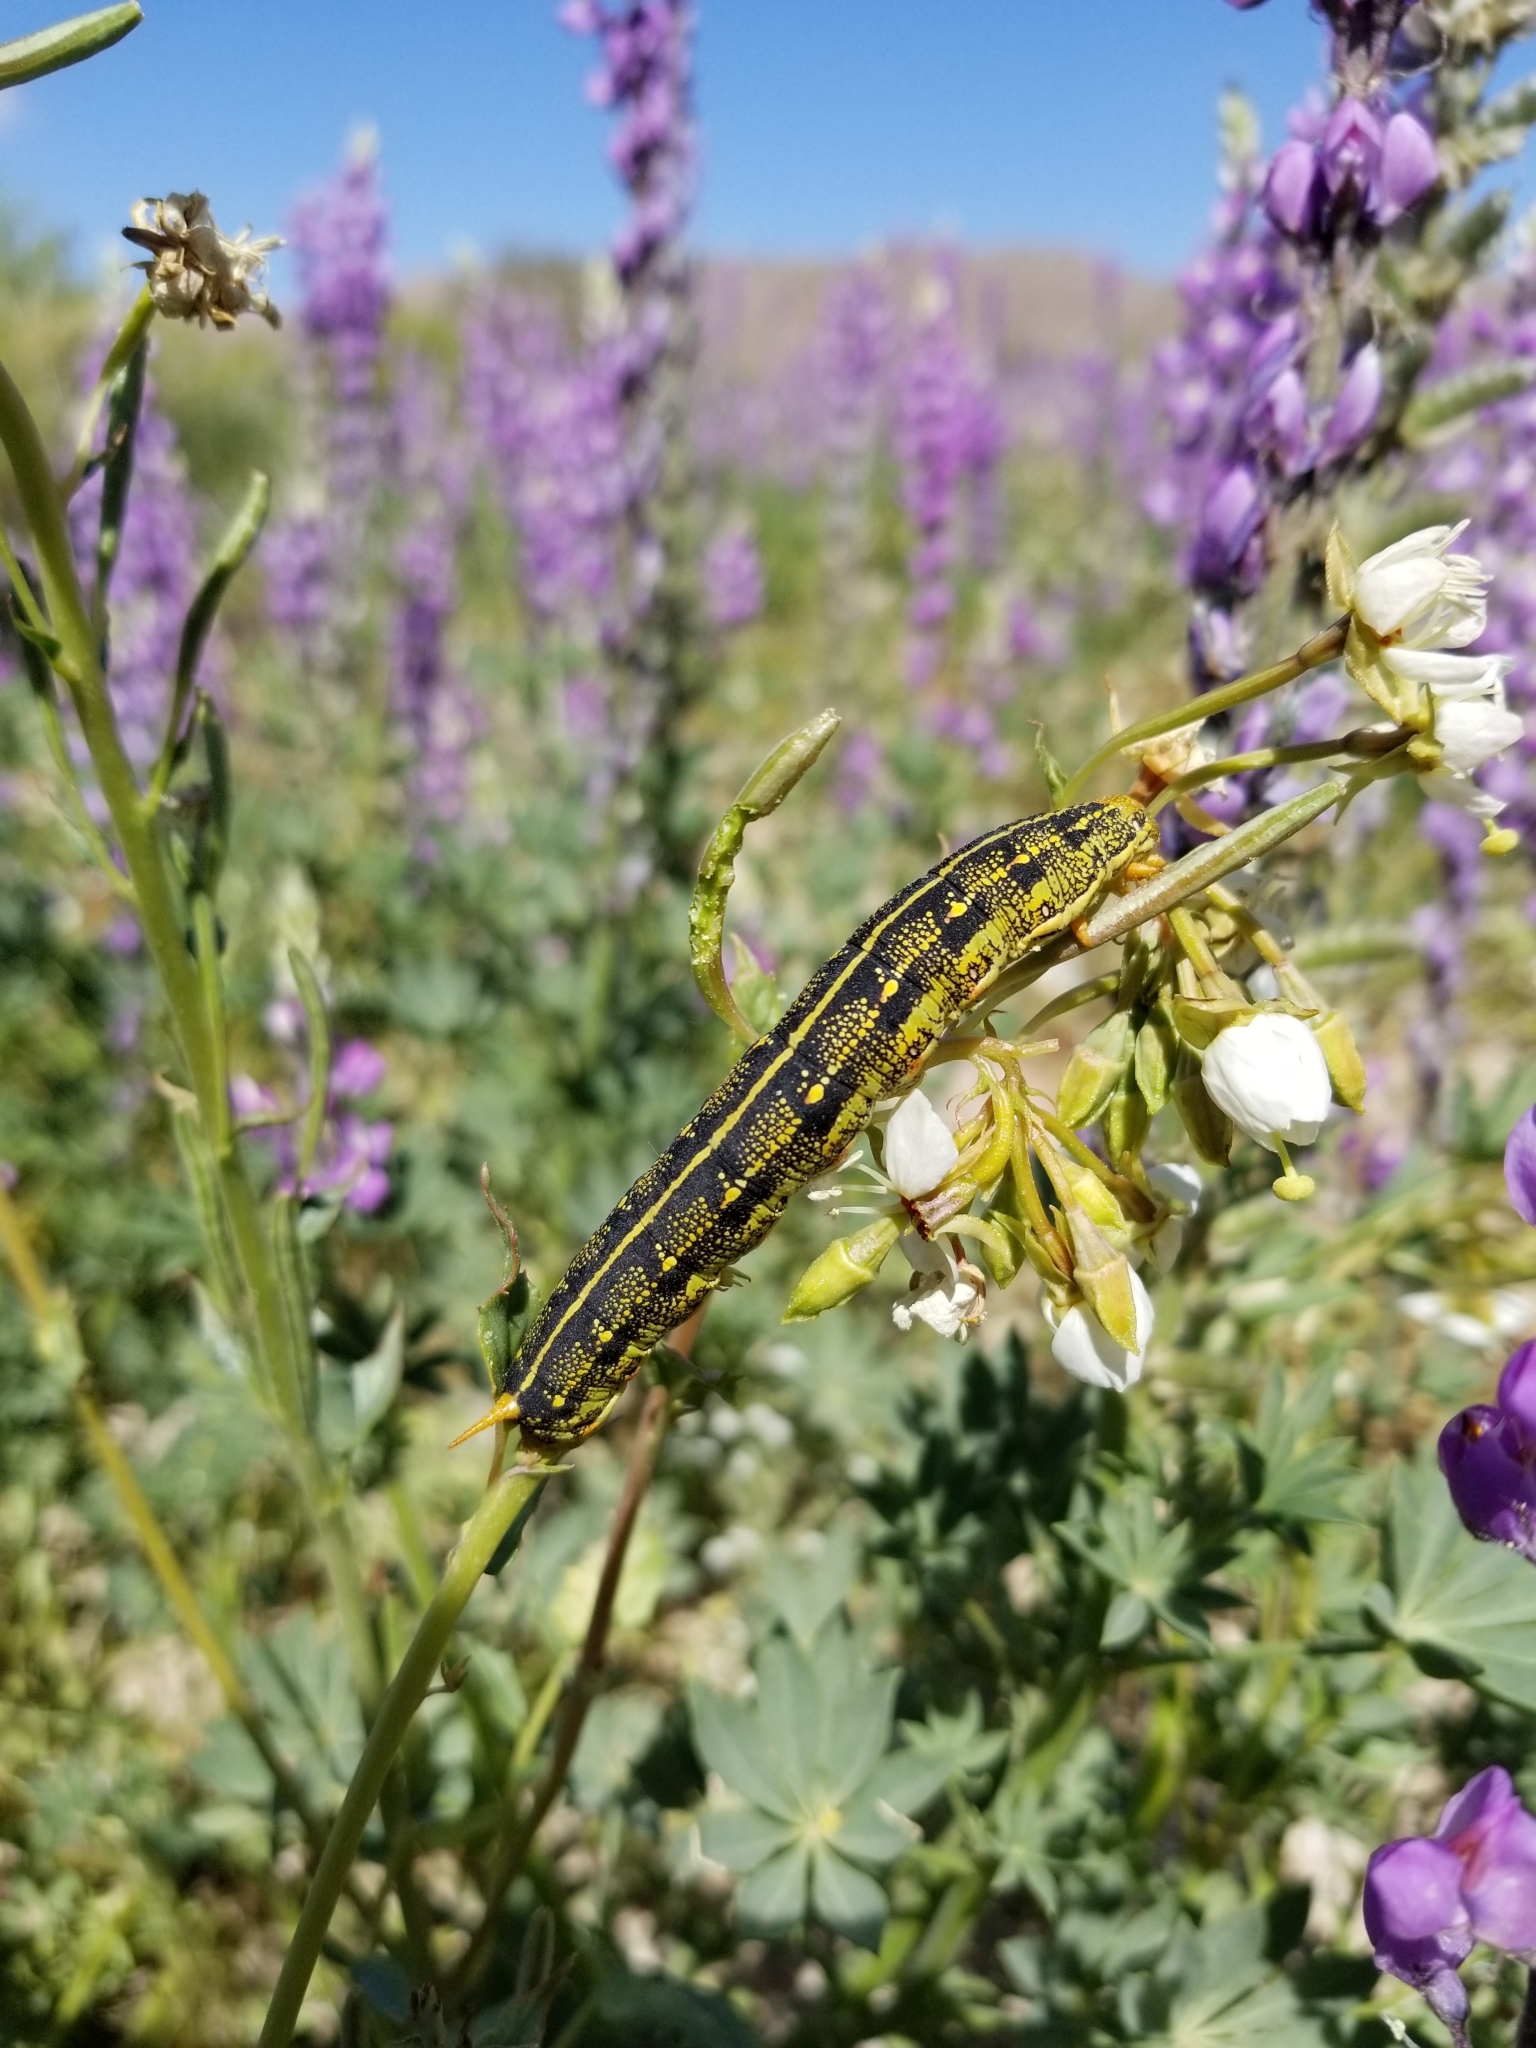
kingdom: Animalia
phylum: Arthropoda
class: Insecta
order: Lepidoptera
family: Sphingidae
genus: Hyles
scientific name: Hyles lineata
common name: White-lined sphinx
